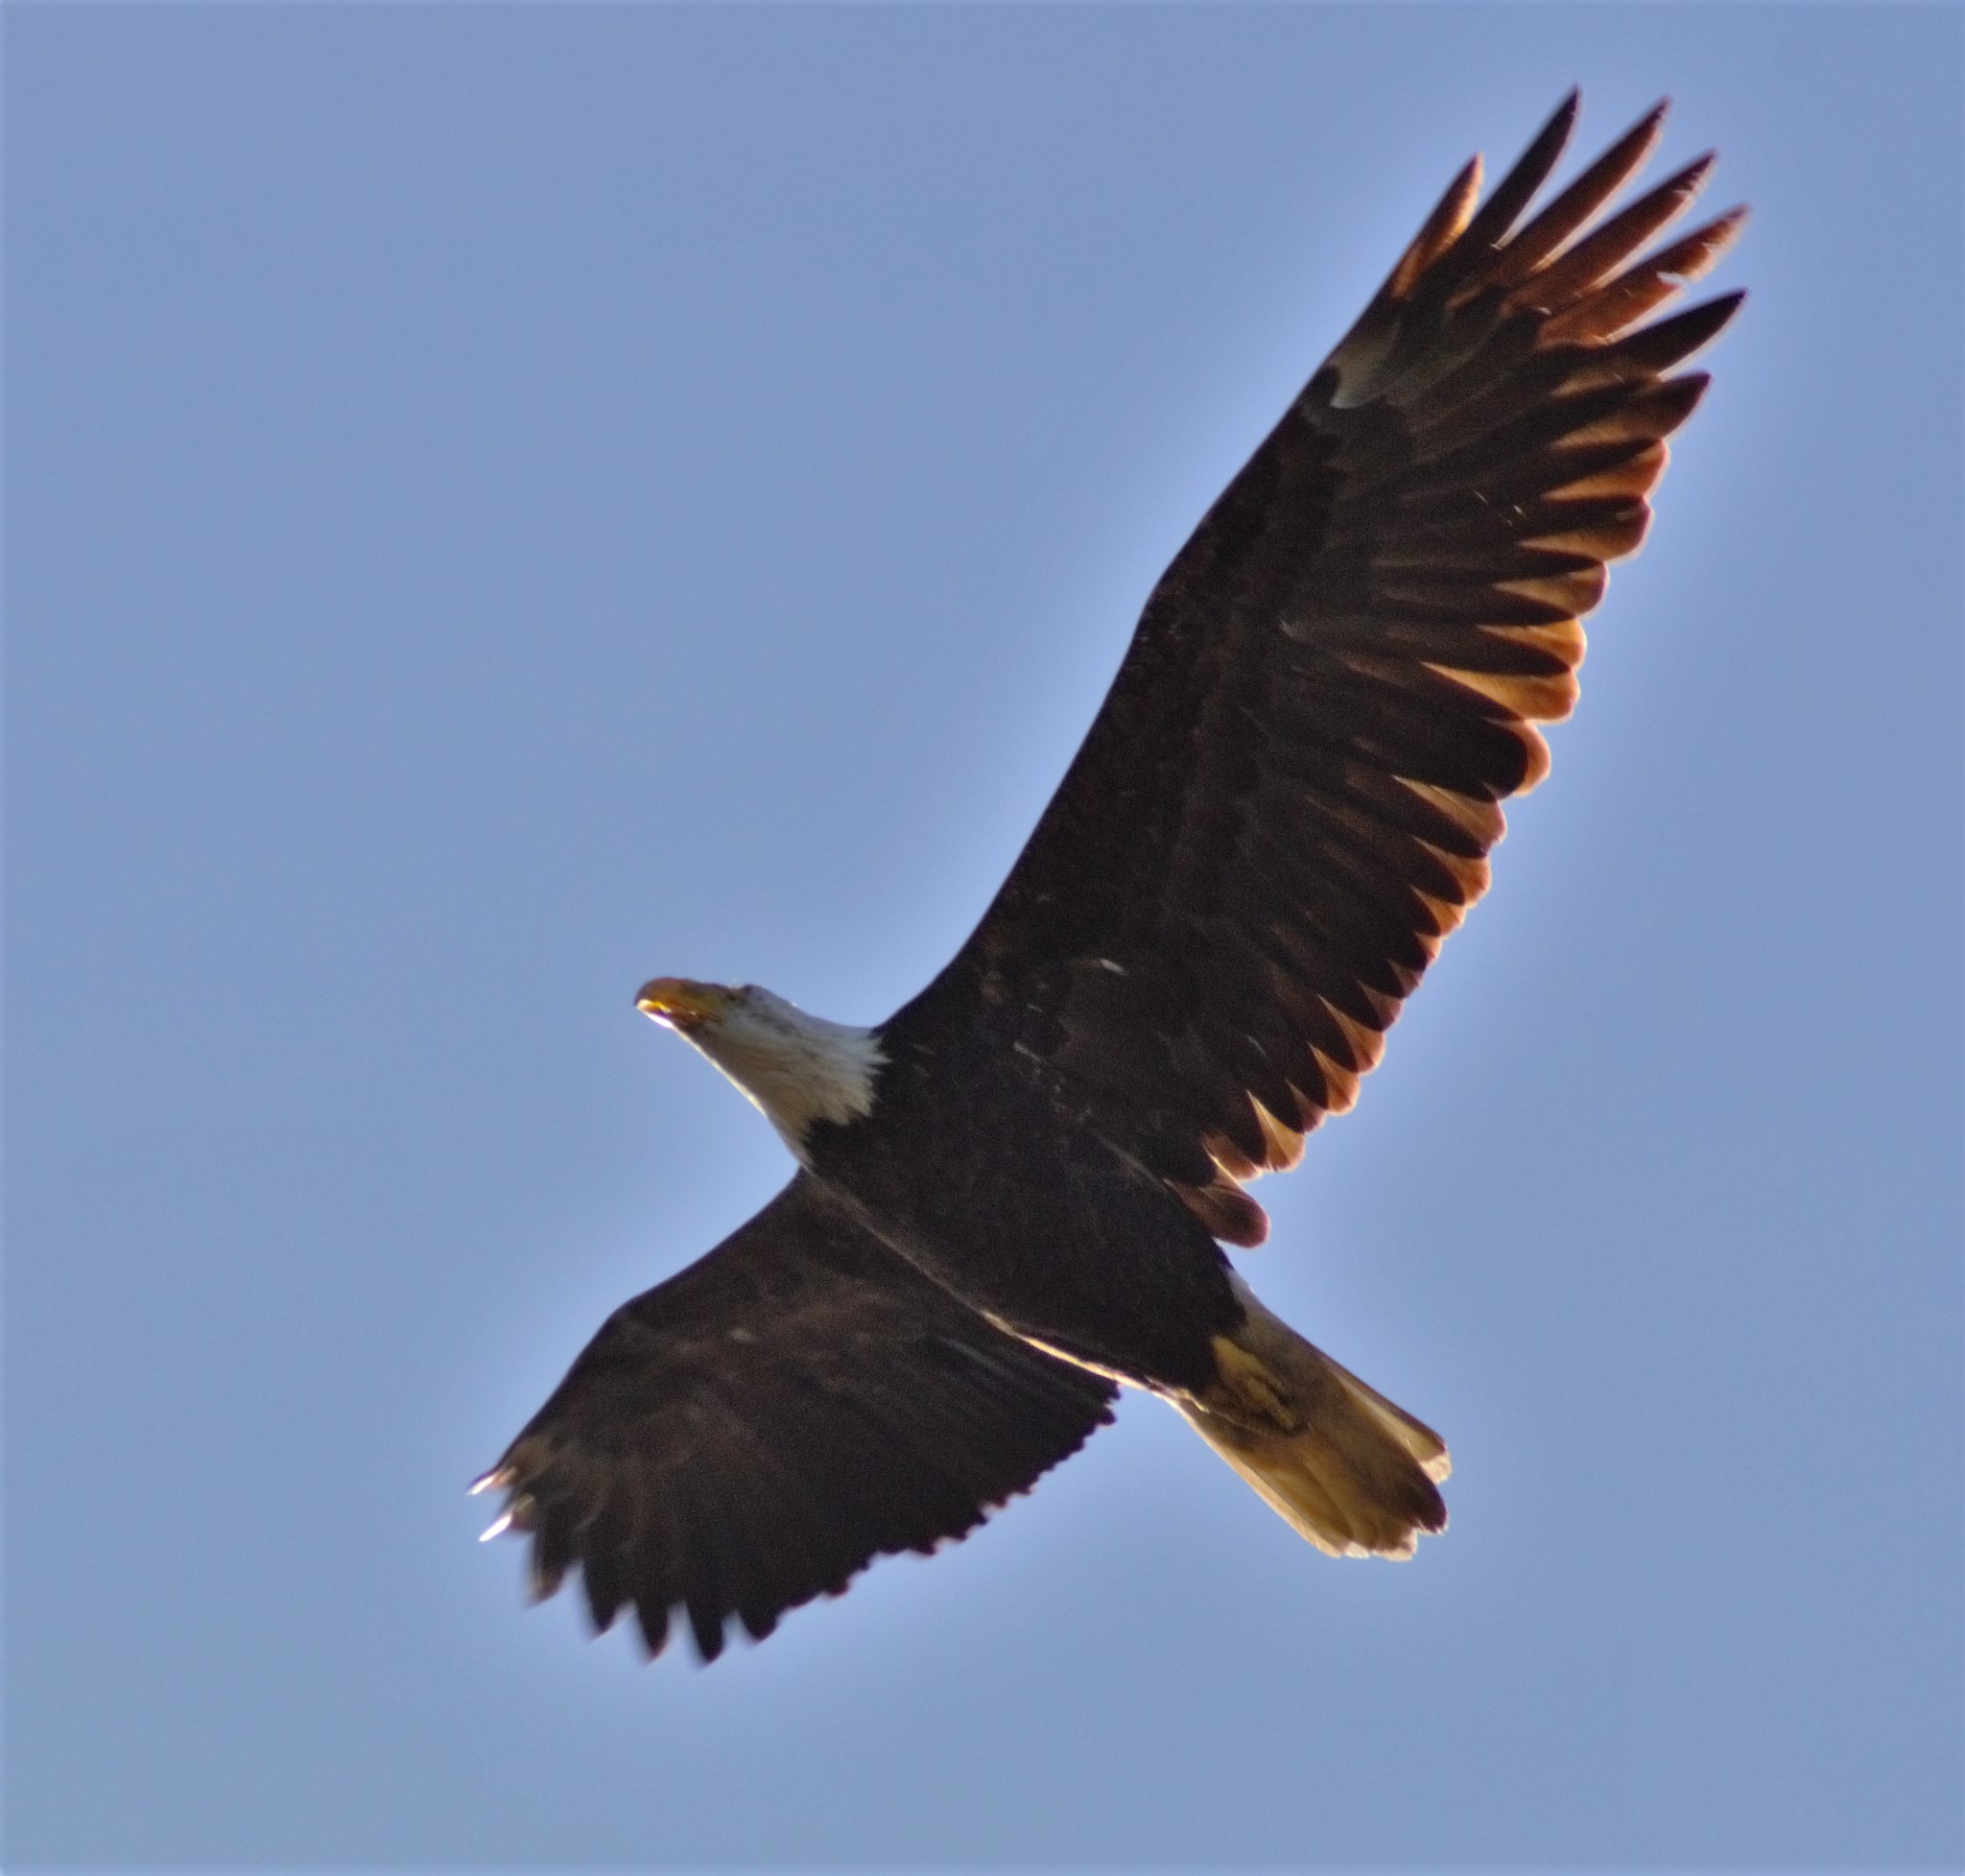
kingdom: Animalia
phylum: Chordata
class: Aves
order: Accipitriformes
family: Accipitridae
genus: Haliaeetus
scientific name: Haliaeetus leucocephalus
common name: Bald eagle
